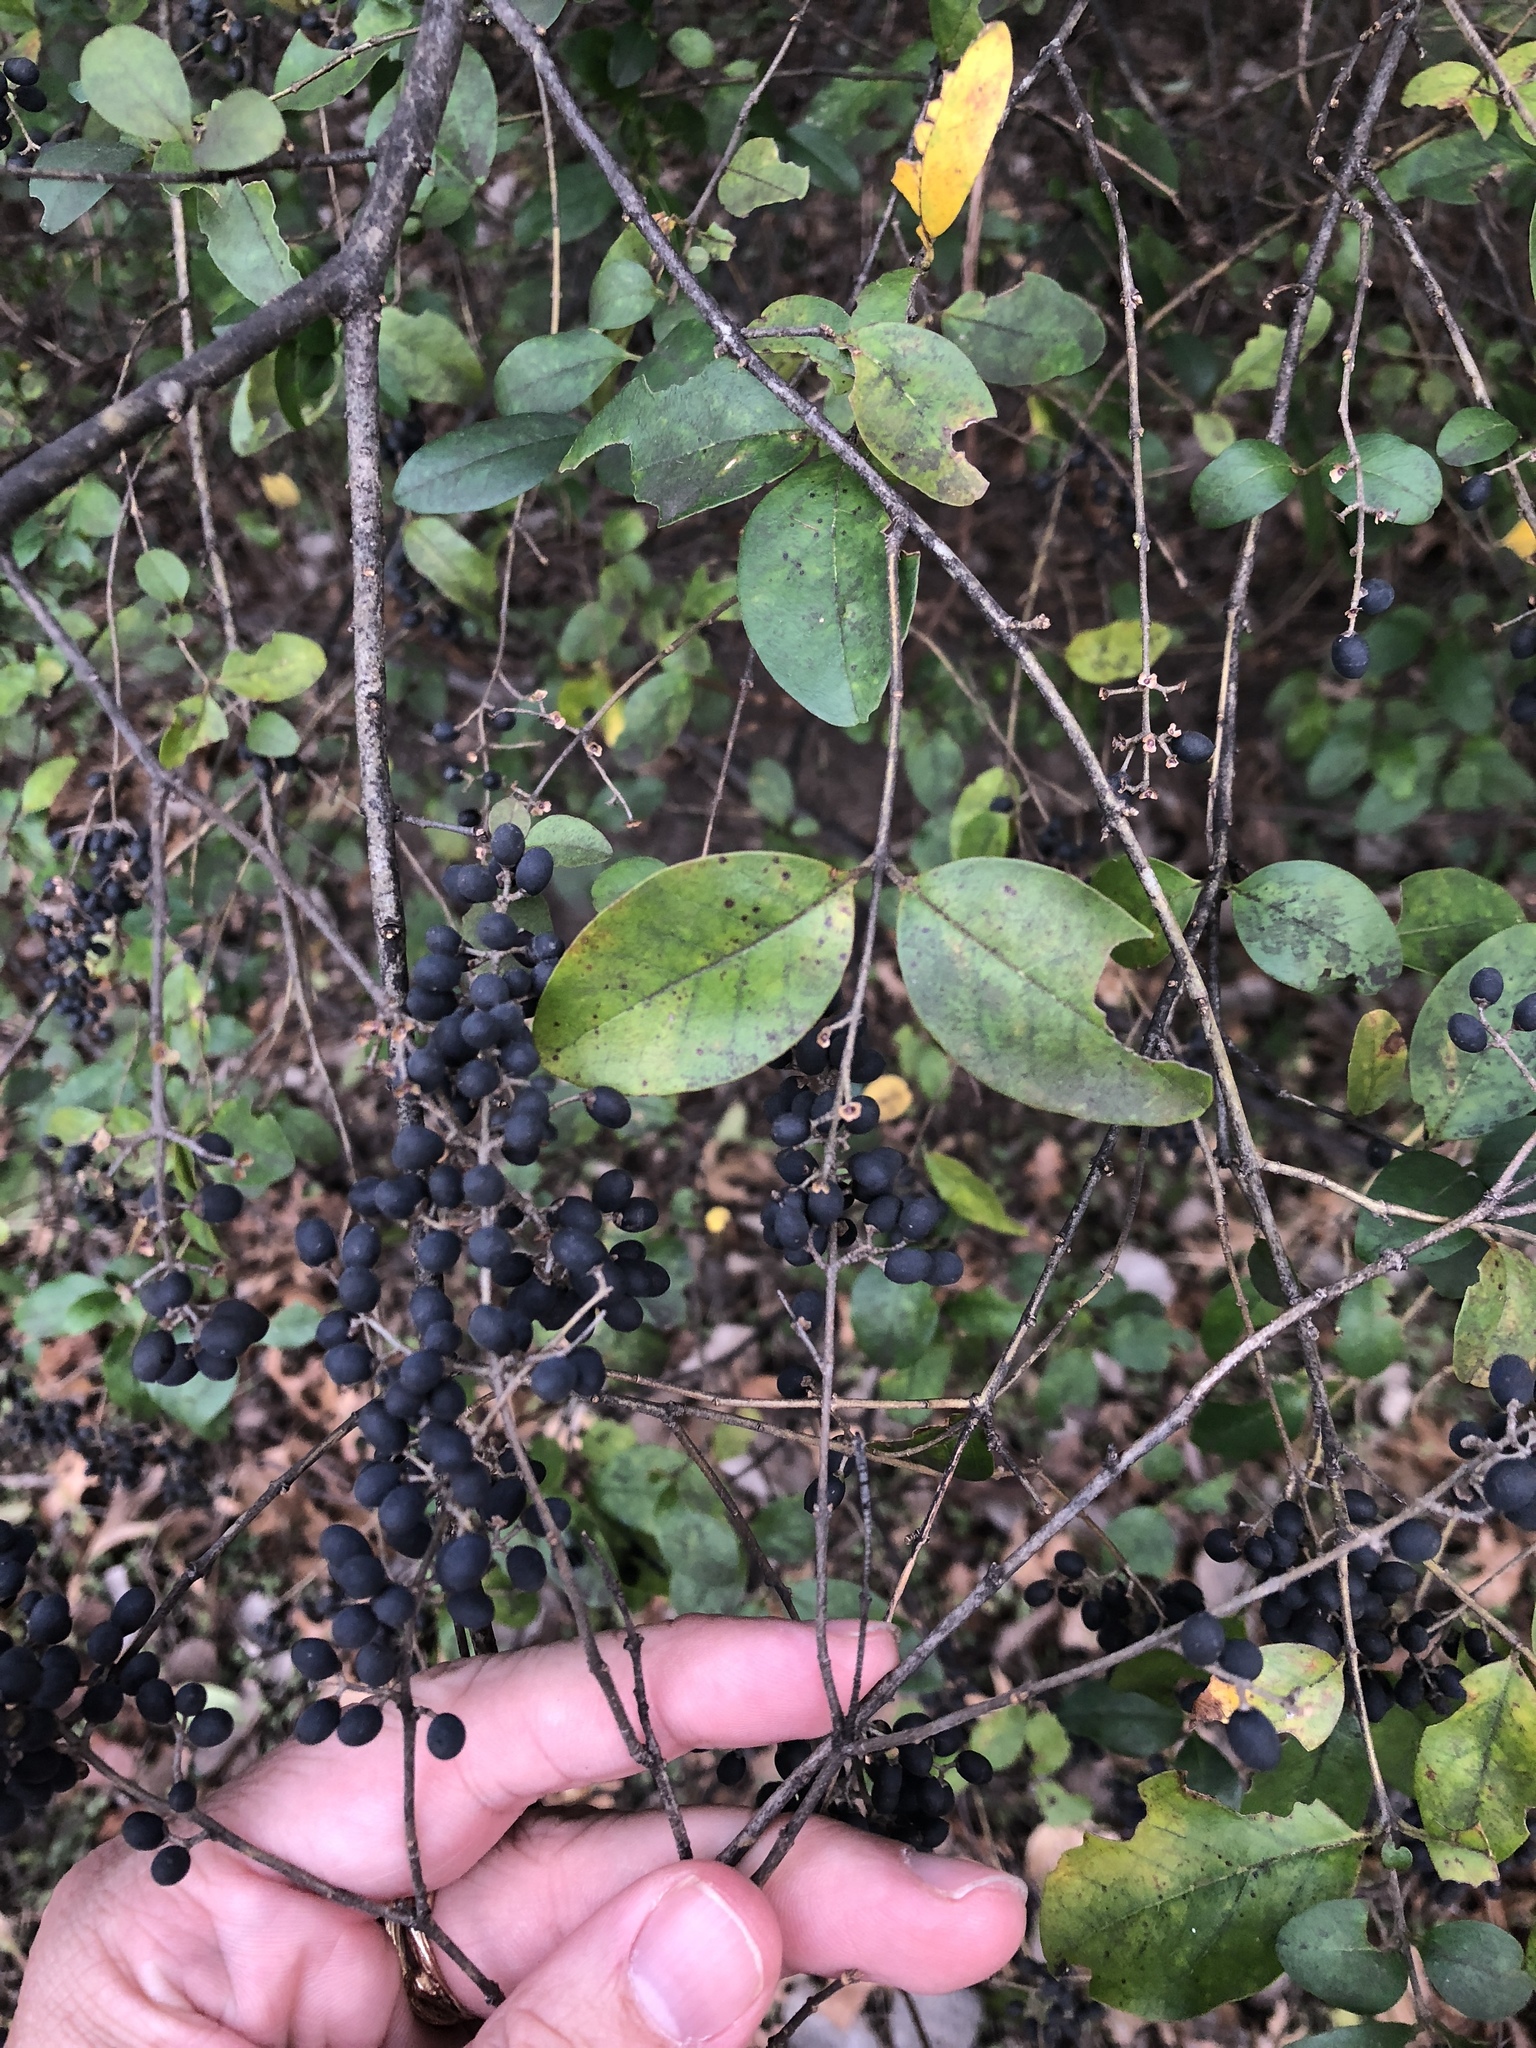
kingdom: Plantae
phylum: Tracheophyta
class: Magnoliopsida
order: Lamiales
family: Oleaceae
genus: Ligustrum
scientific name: Ligustrum sinense
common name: Chinese privet
